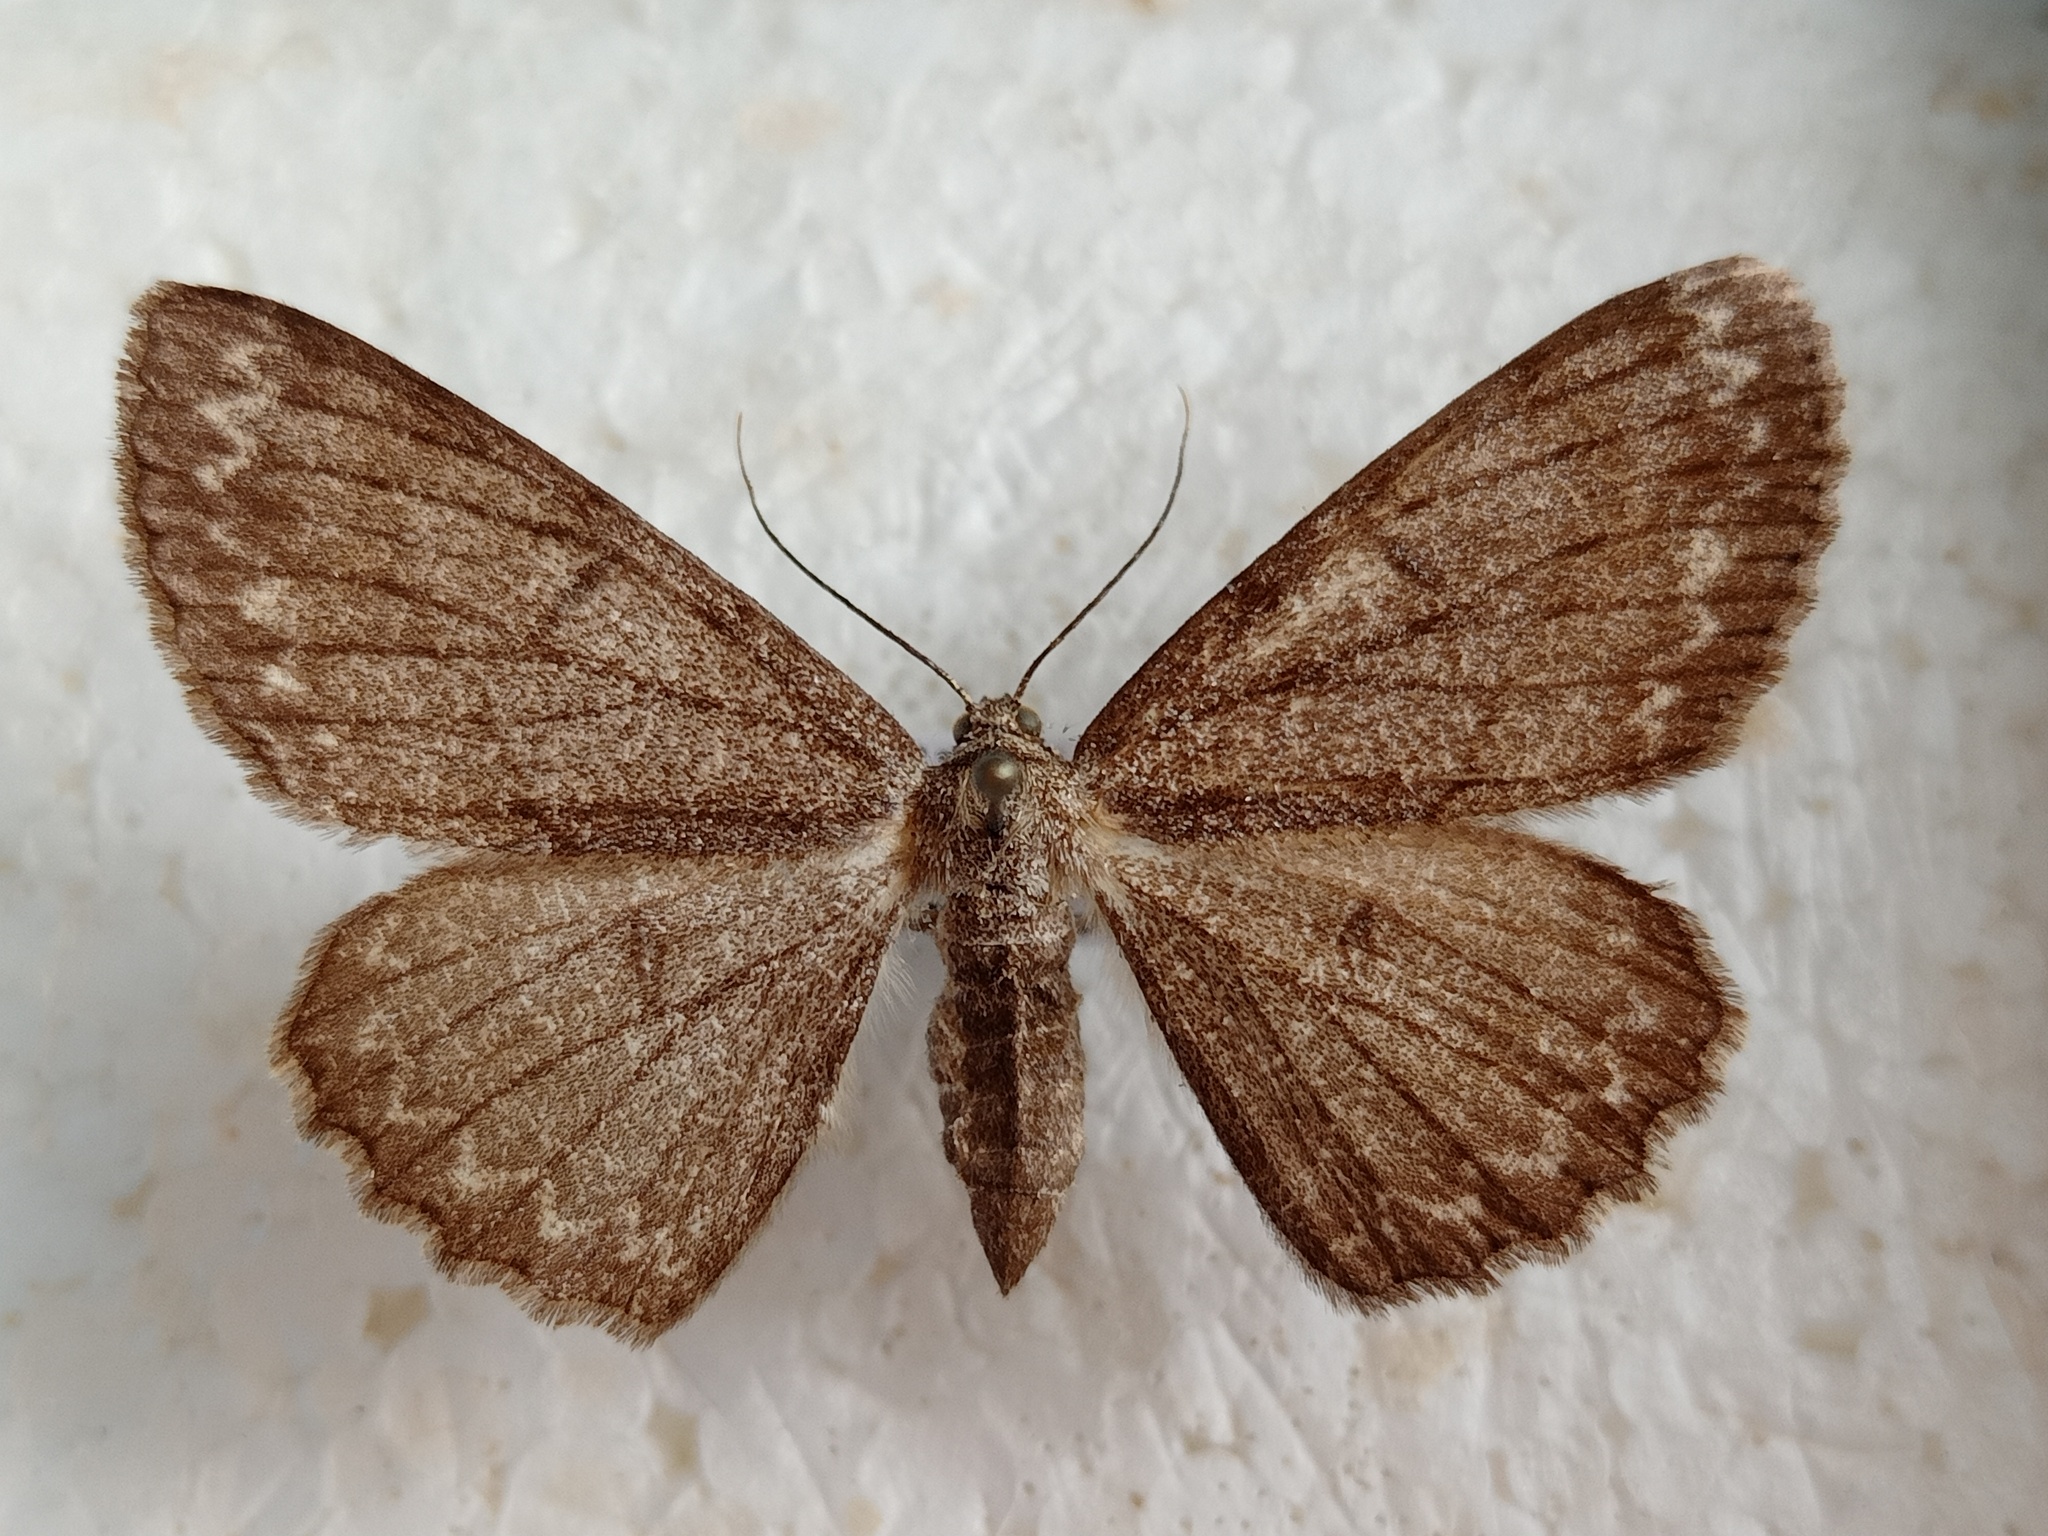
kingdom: Animalia
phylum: Arthropoda
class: Insecta
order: Lepidoptera
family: Geometridae
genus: Hypomecis
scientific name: Hypomecis punctinalis
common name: Pale oak beauty
